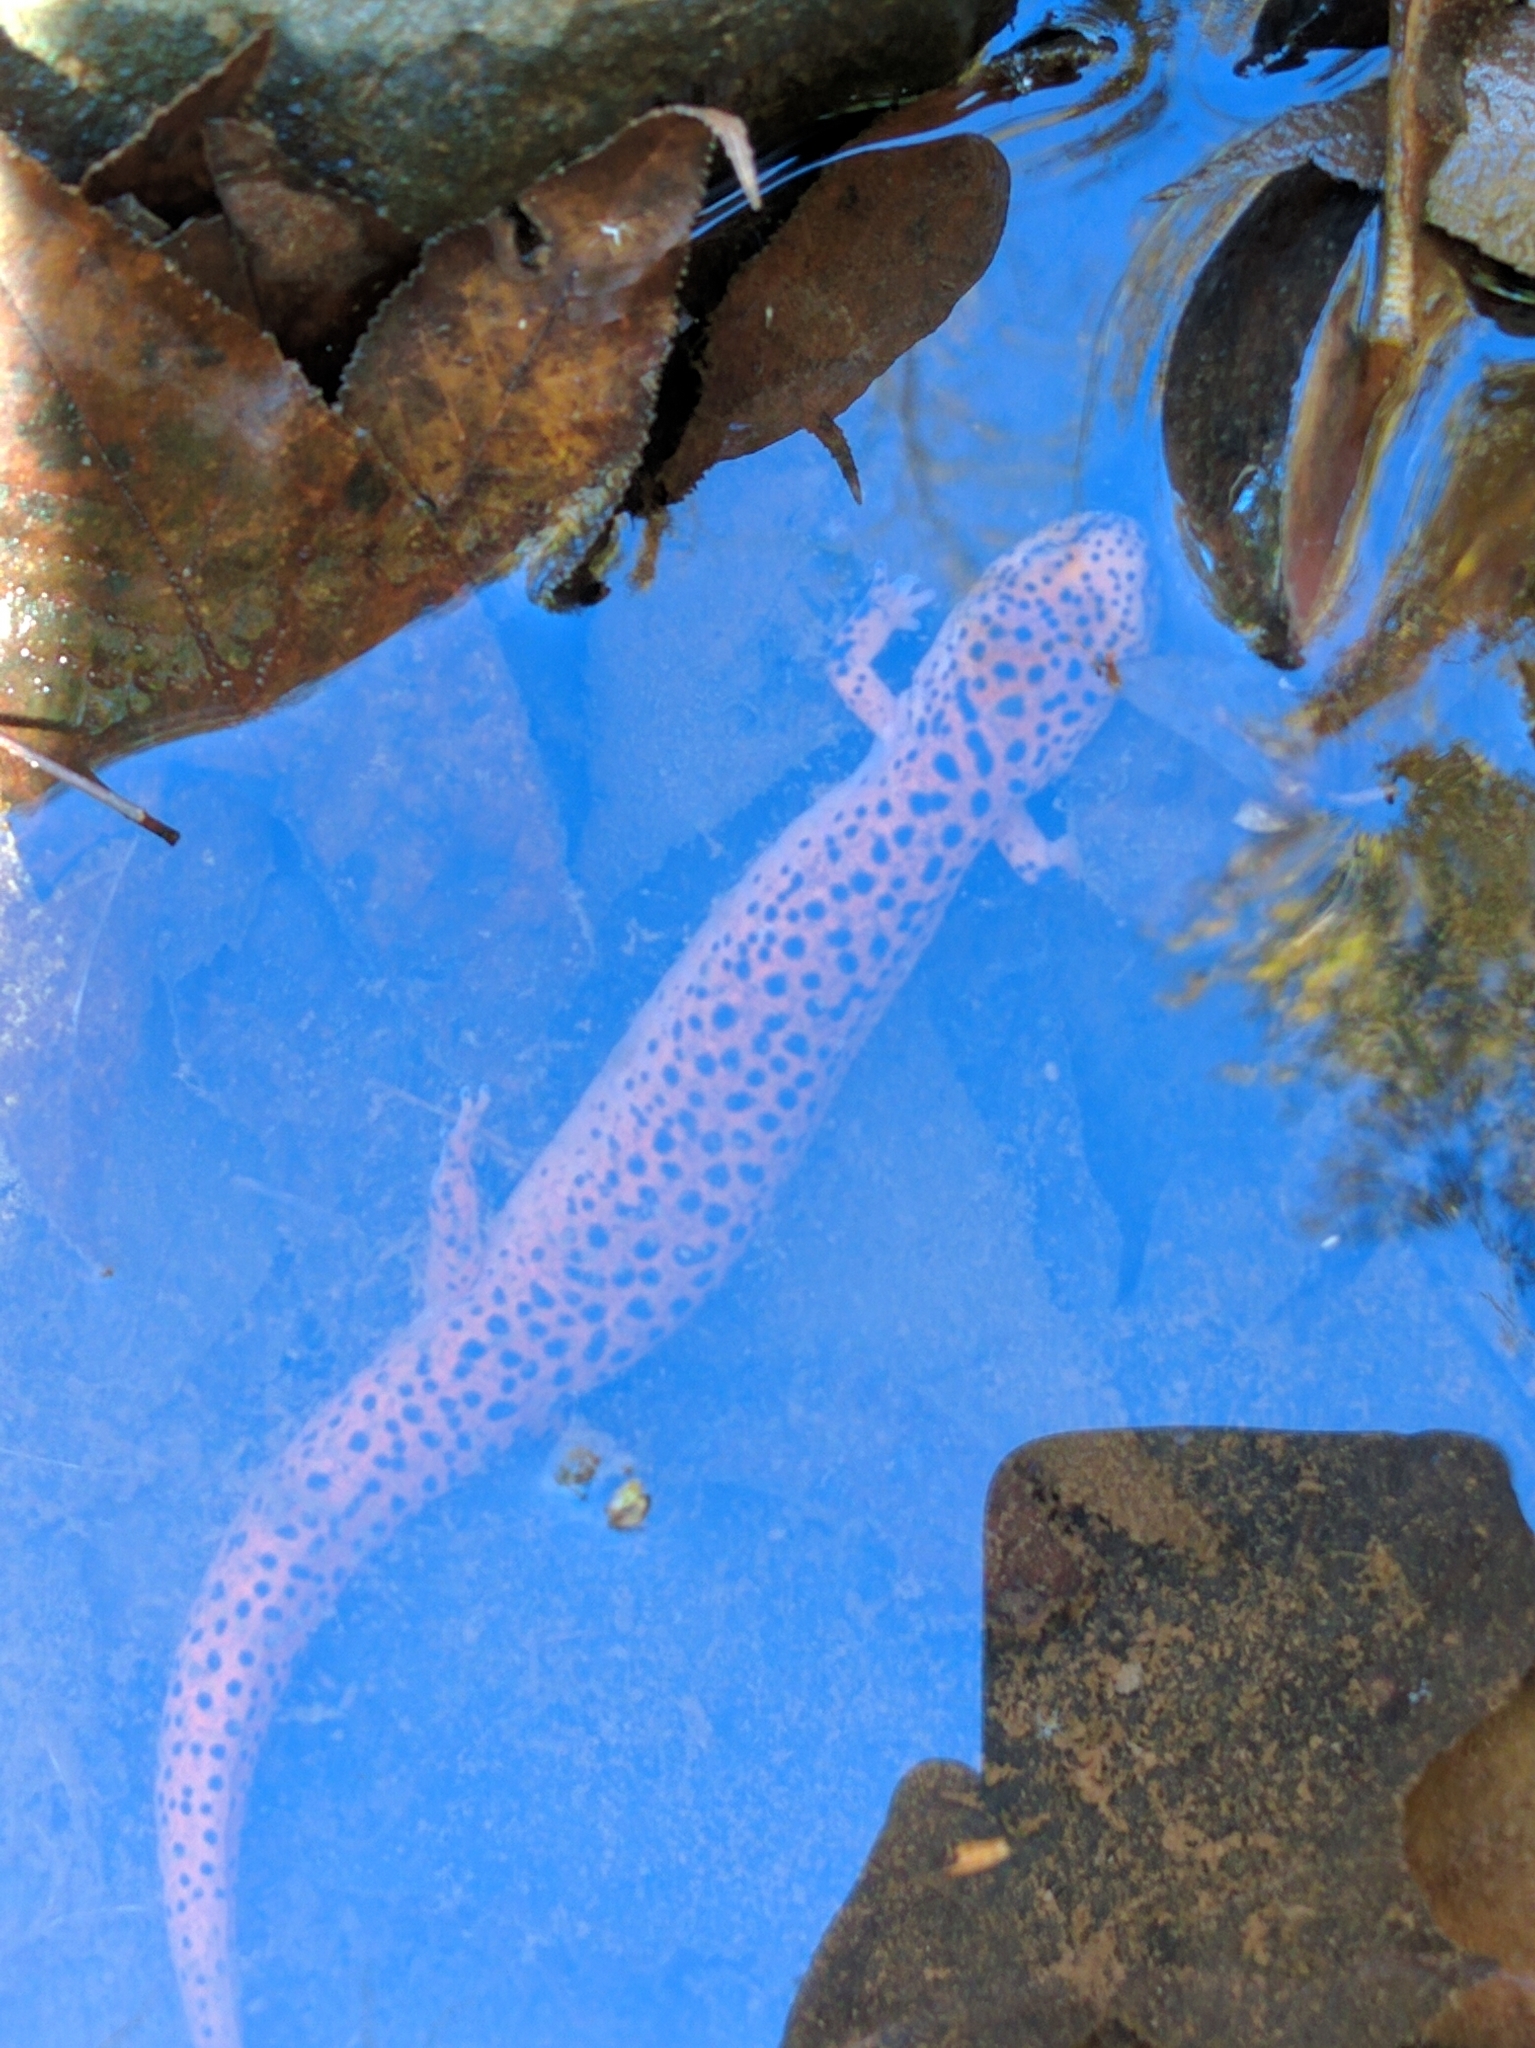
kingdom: Animalia
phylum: Chordata
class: Amphibia
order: Caudata
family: Plethodontidae
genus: Pseudotriton
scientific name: Pseudotriton ruber
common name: Red salamander
